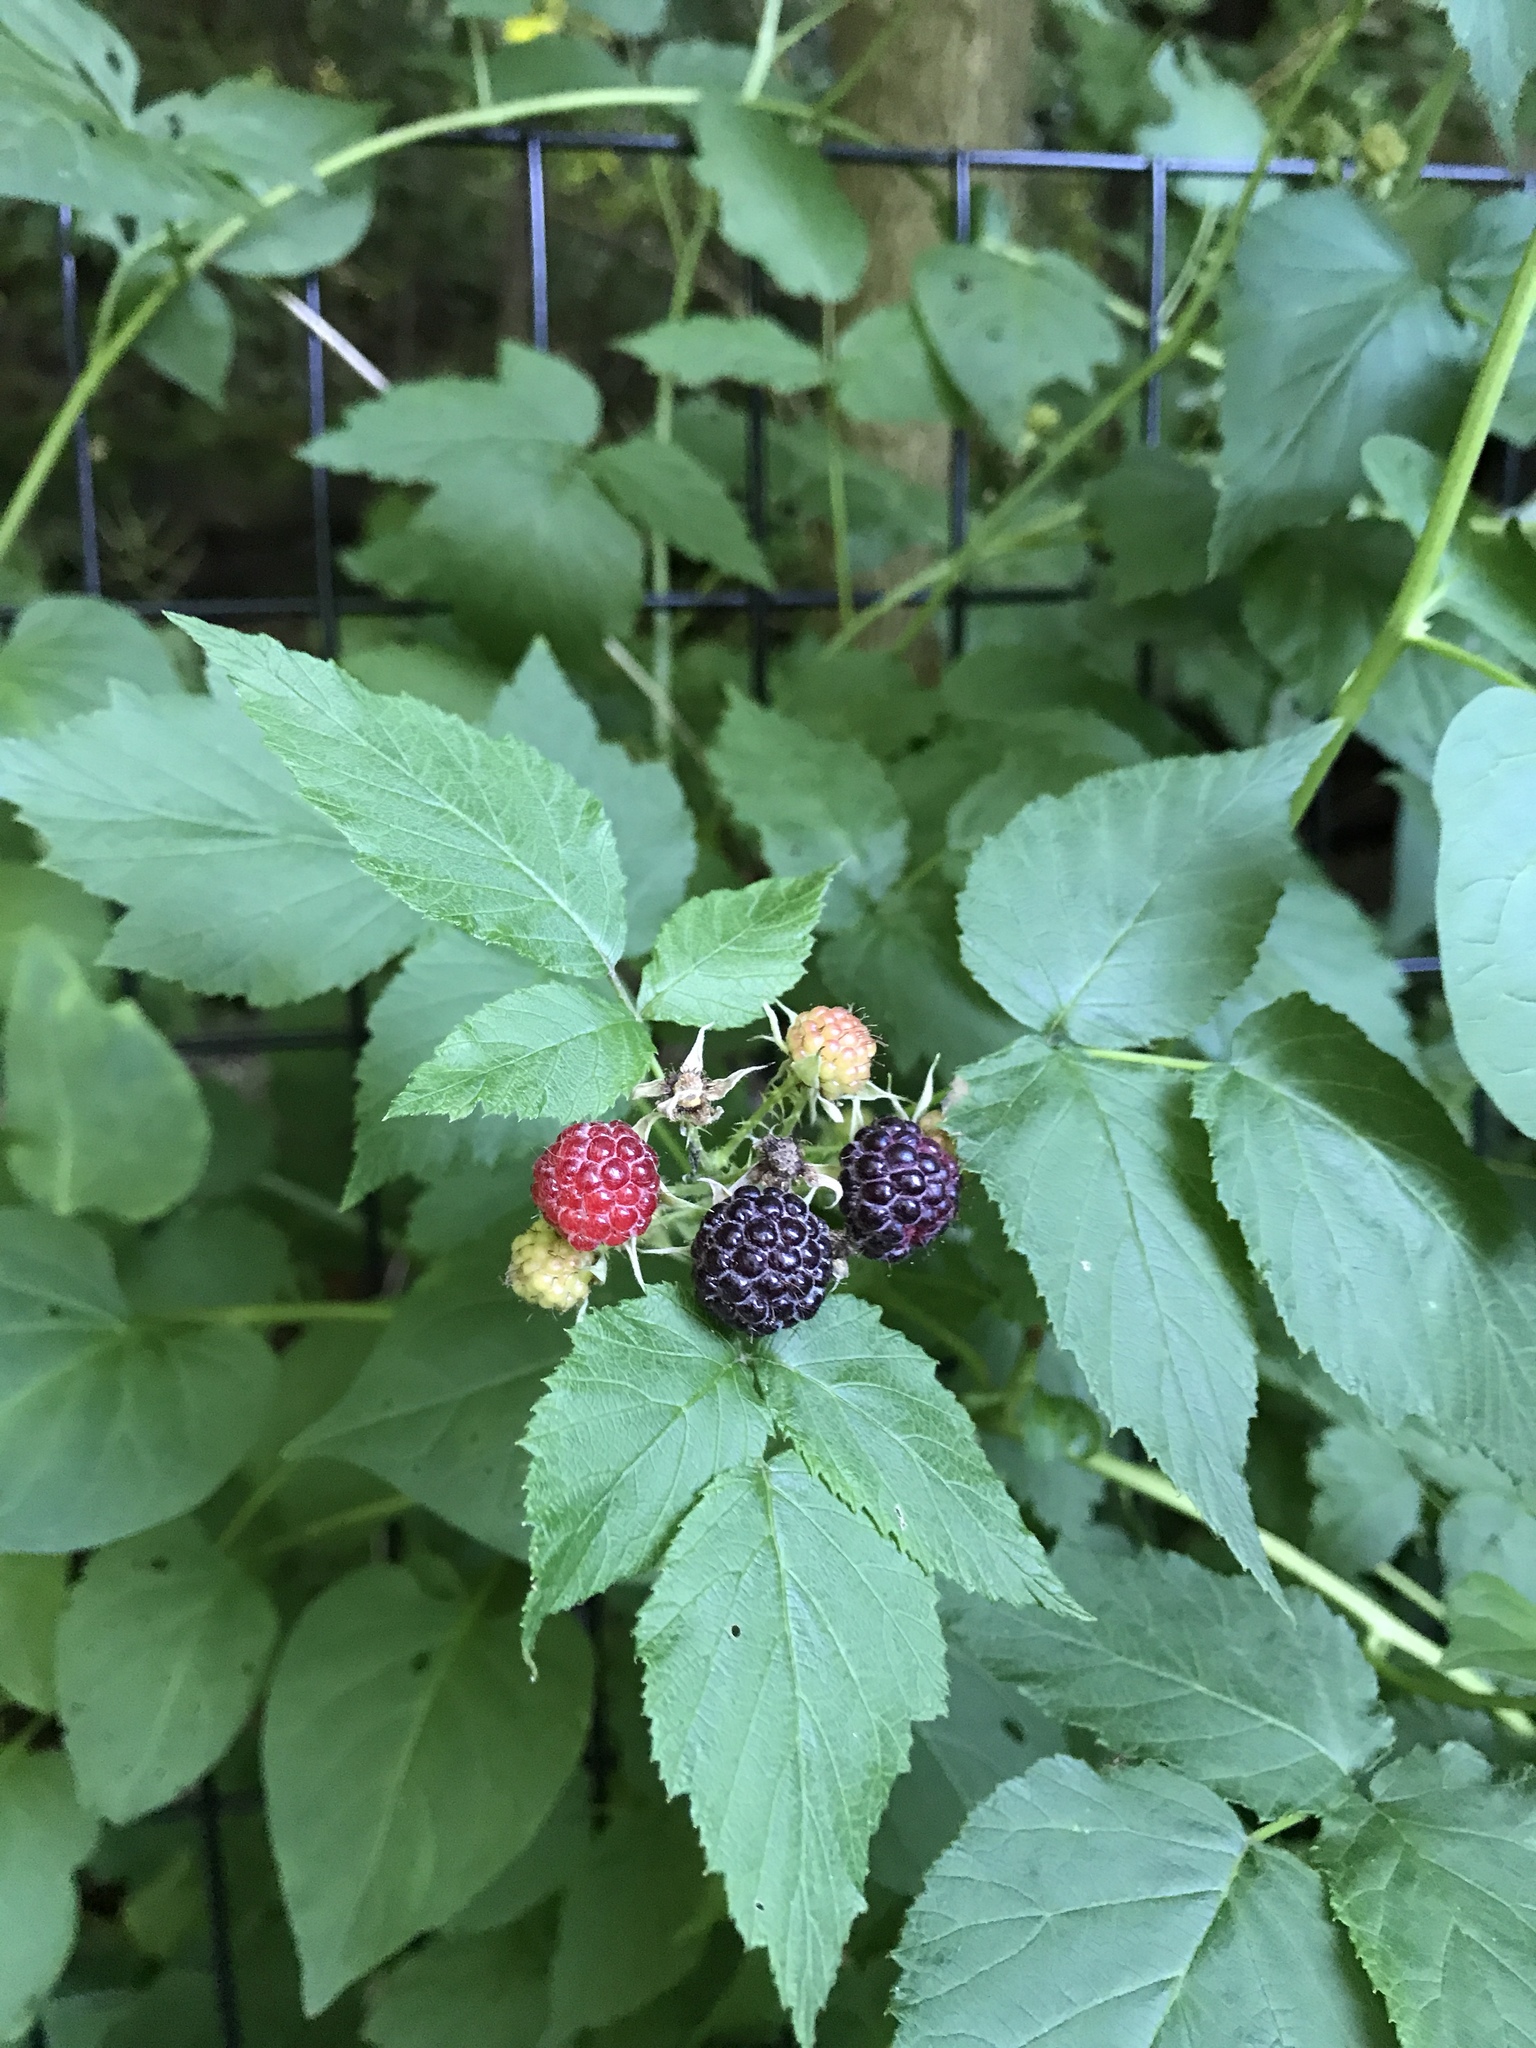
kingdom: Plantae
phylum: Tracheophyta
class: Magnoliopsida
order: Rosales
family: Rosaceae
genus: Rubus
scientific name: Rubus occidentalis
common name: Black raspberry
